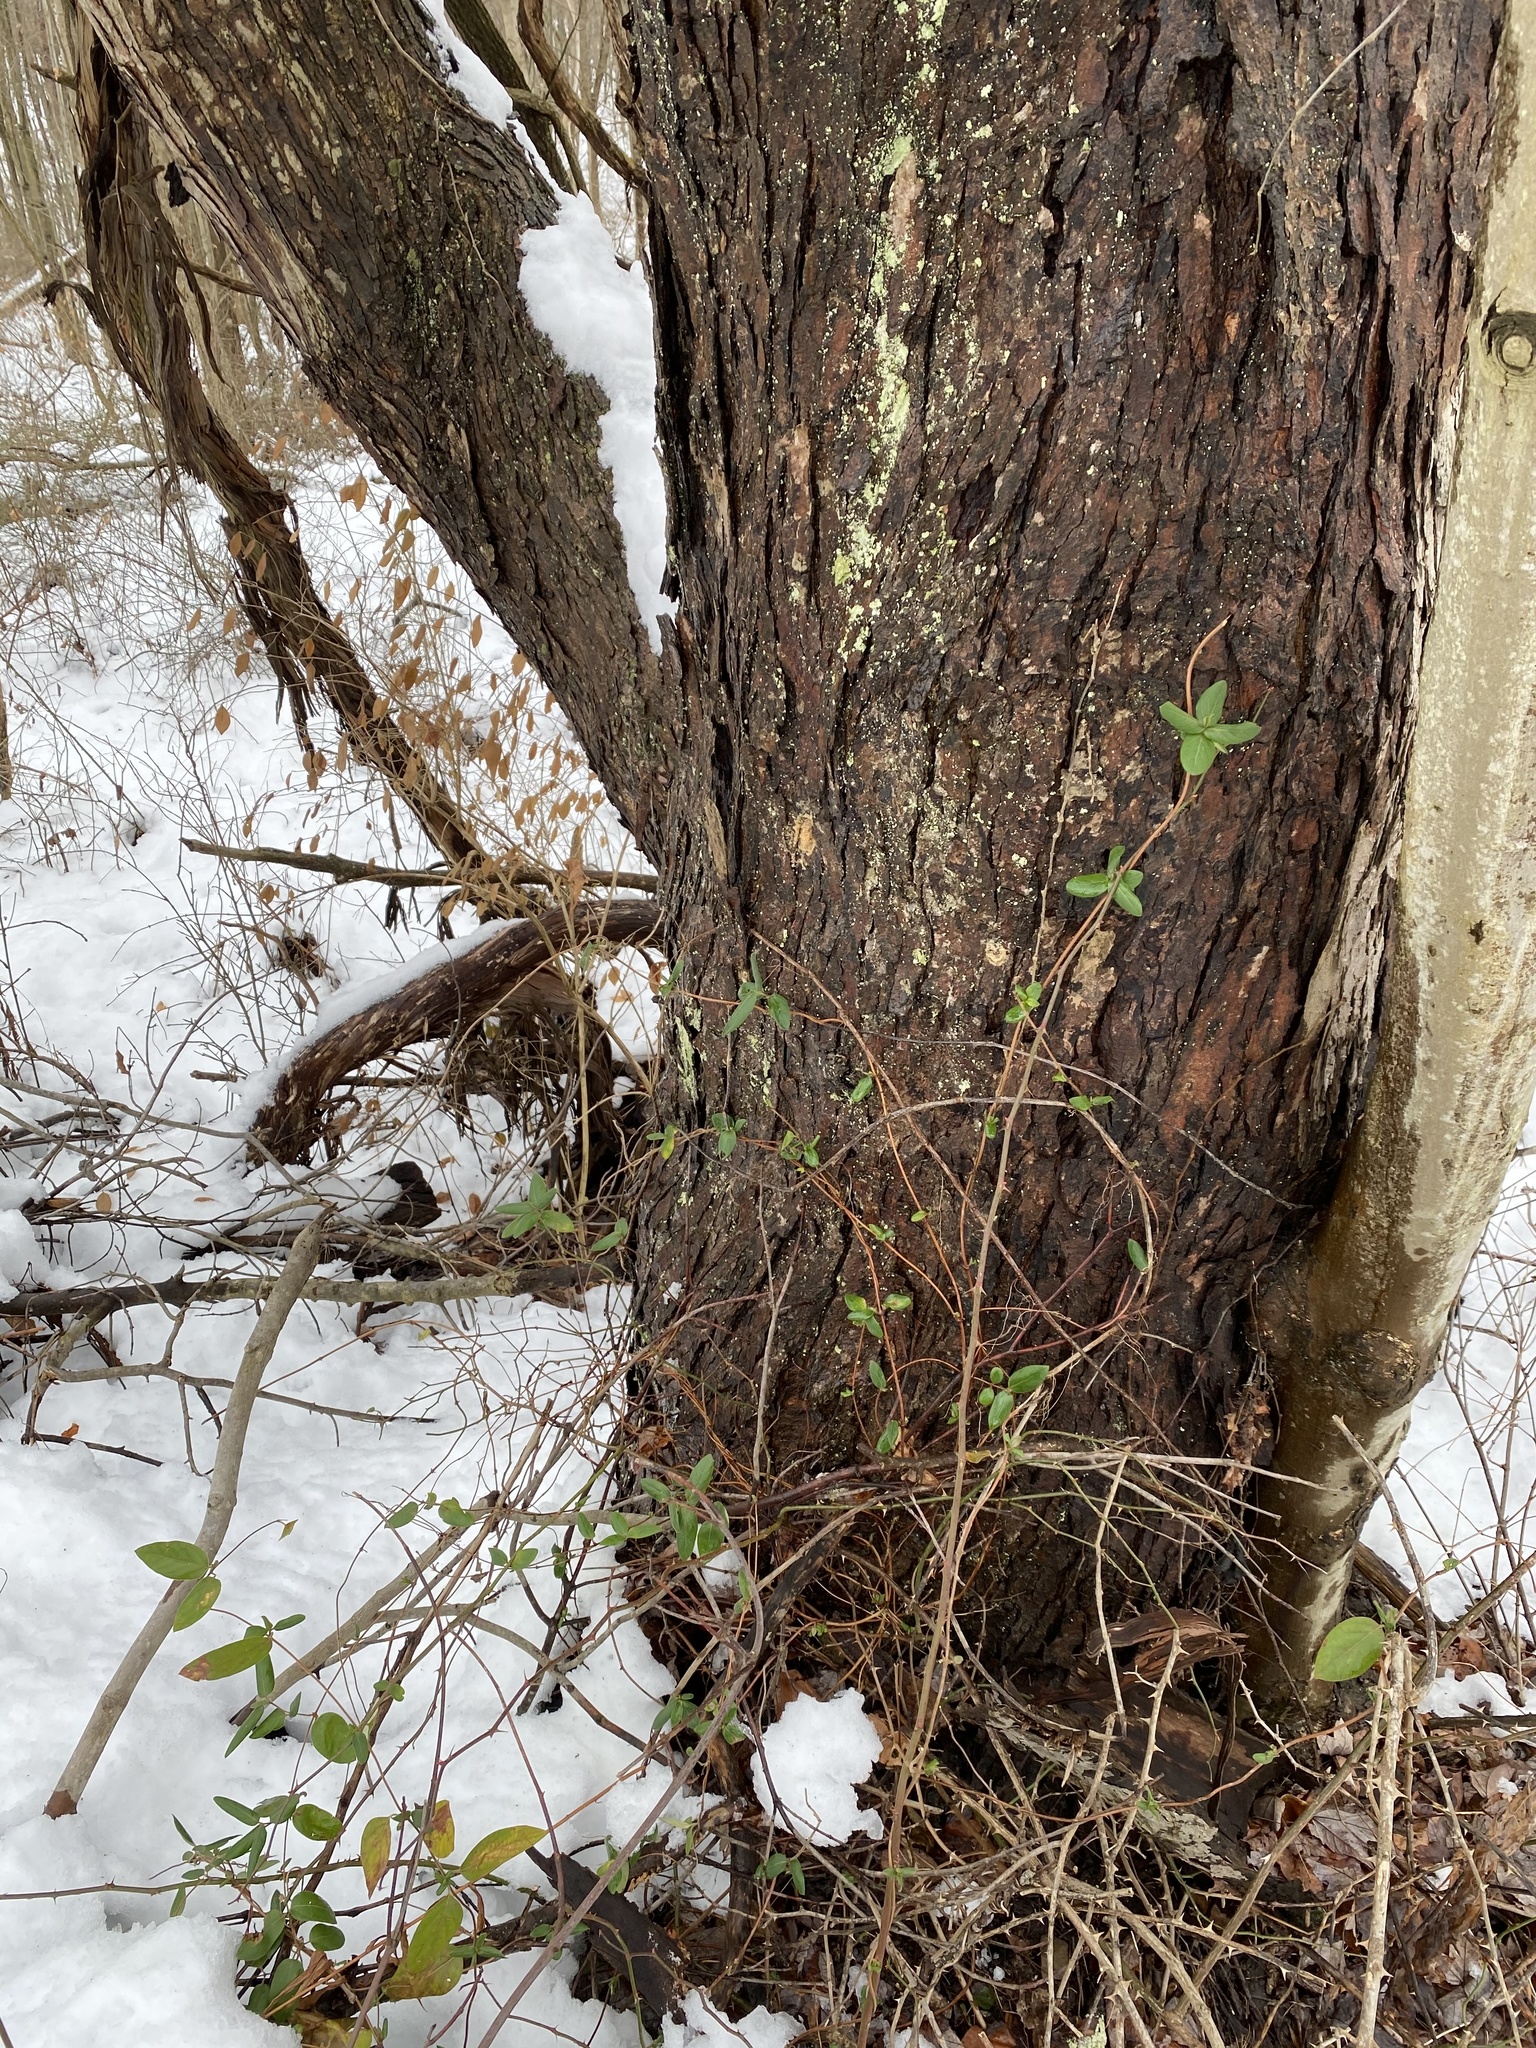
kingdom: Plantae
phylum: Tracheophyta
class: Magnoliopsida
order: Dipsacales
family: Caprifoliaceae
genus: Lonicera
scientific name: Lonicera japonica
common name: Japanese honeysuckle
